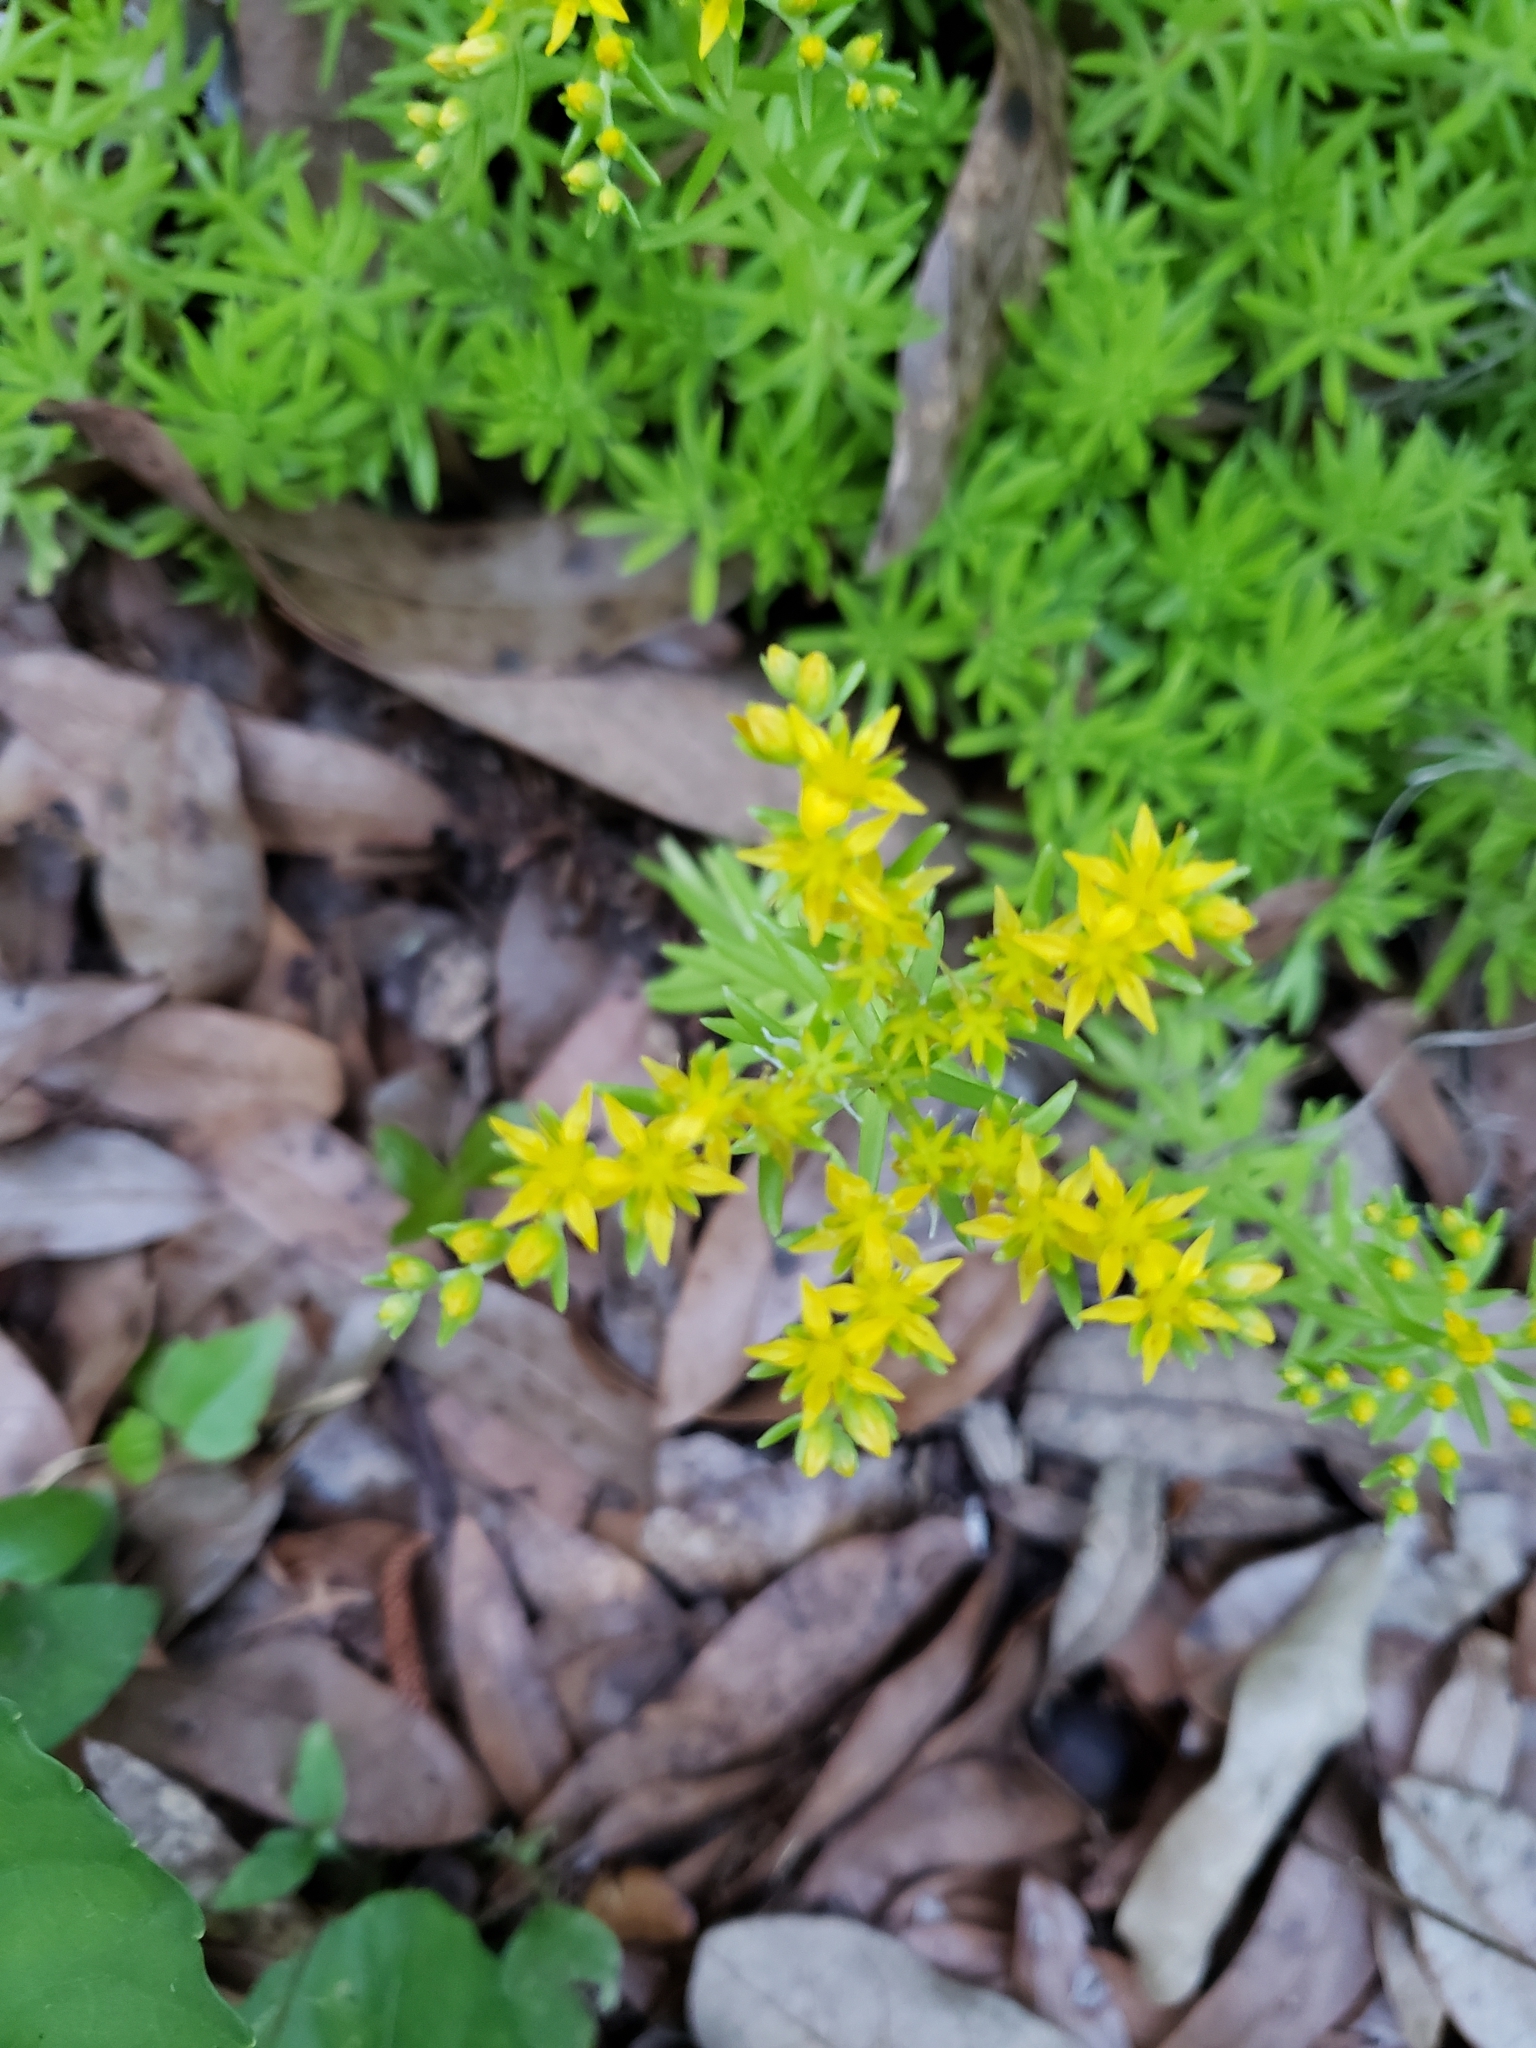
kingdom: Plantae
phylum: Tracheophyta
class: Magnoliopsida
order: Saxifragales
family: Crassulaceae
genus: Sedum
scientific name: Sedum mexicanum
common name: Mexican stonecrop
